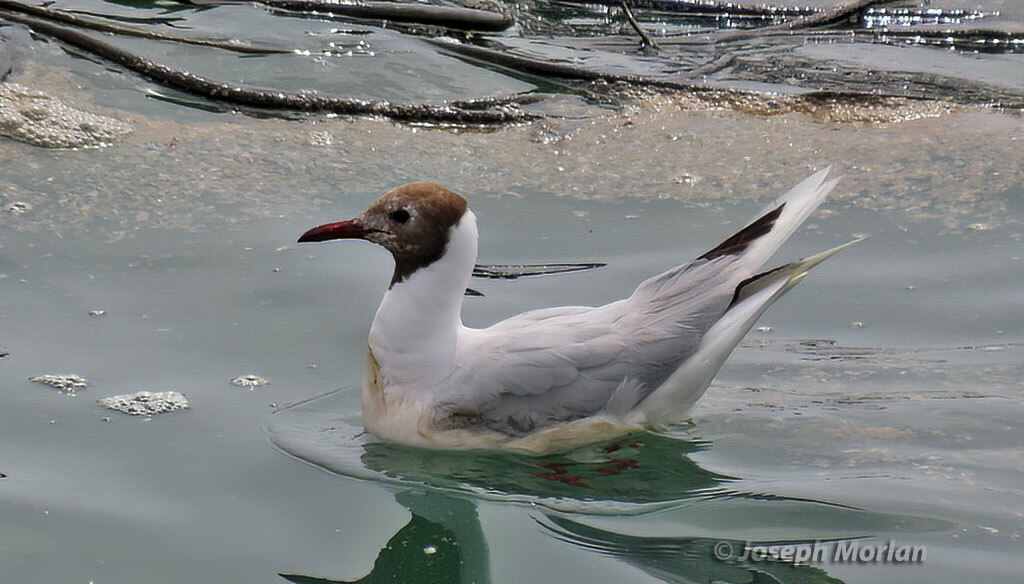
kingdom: Animalia
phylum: Chordata
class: Aves
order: Charadriiformes
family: Laridae
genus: Chroicocephalus
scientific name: Chroicocephalus maculipennis
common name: Brown-hooded gull
